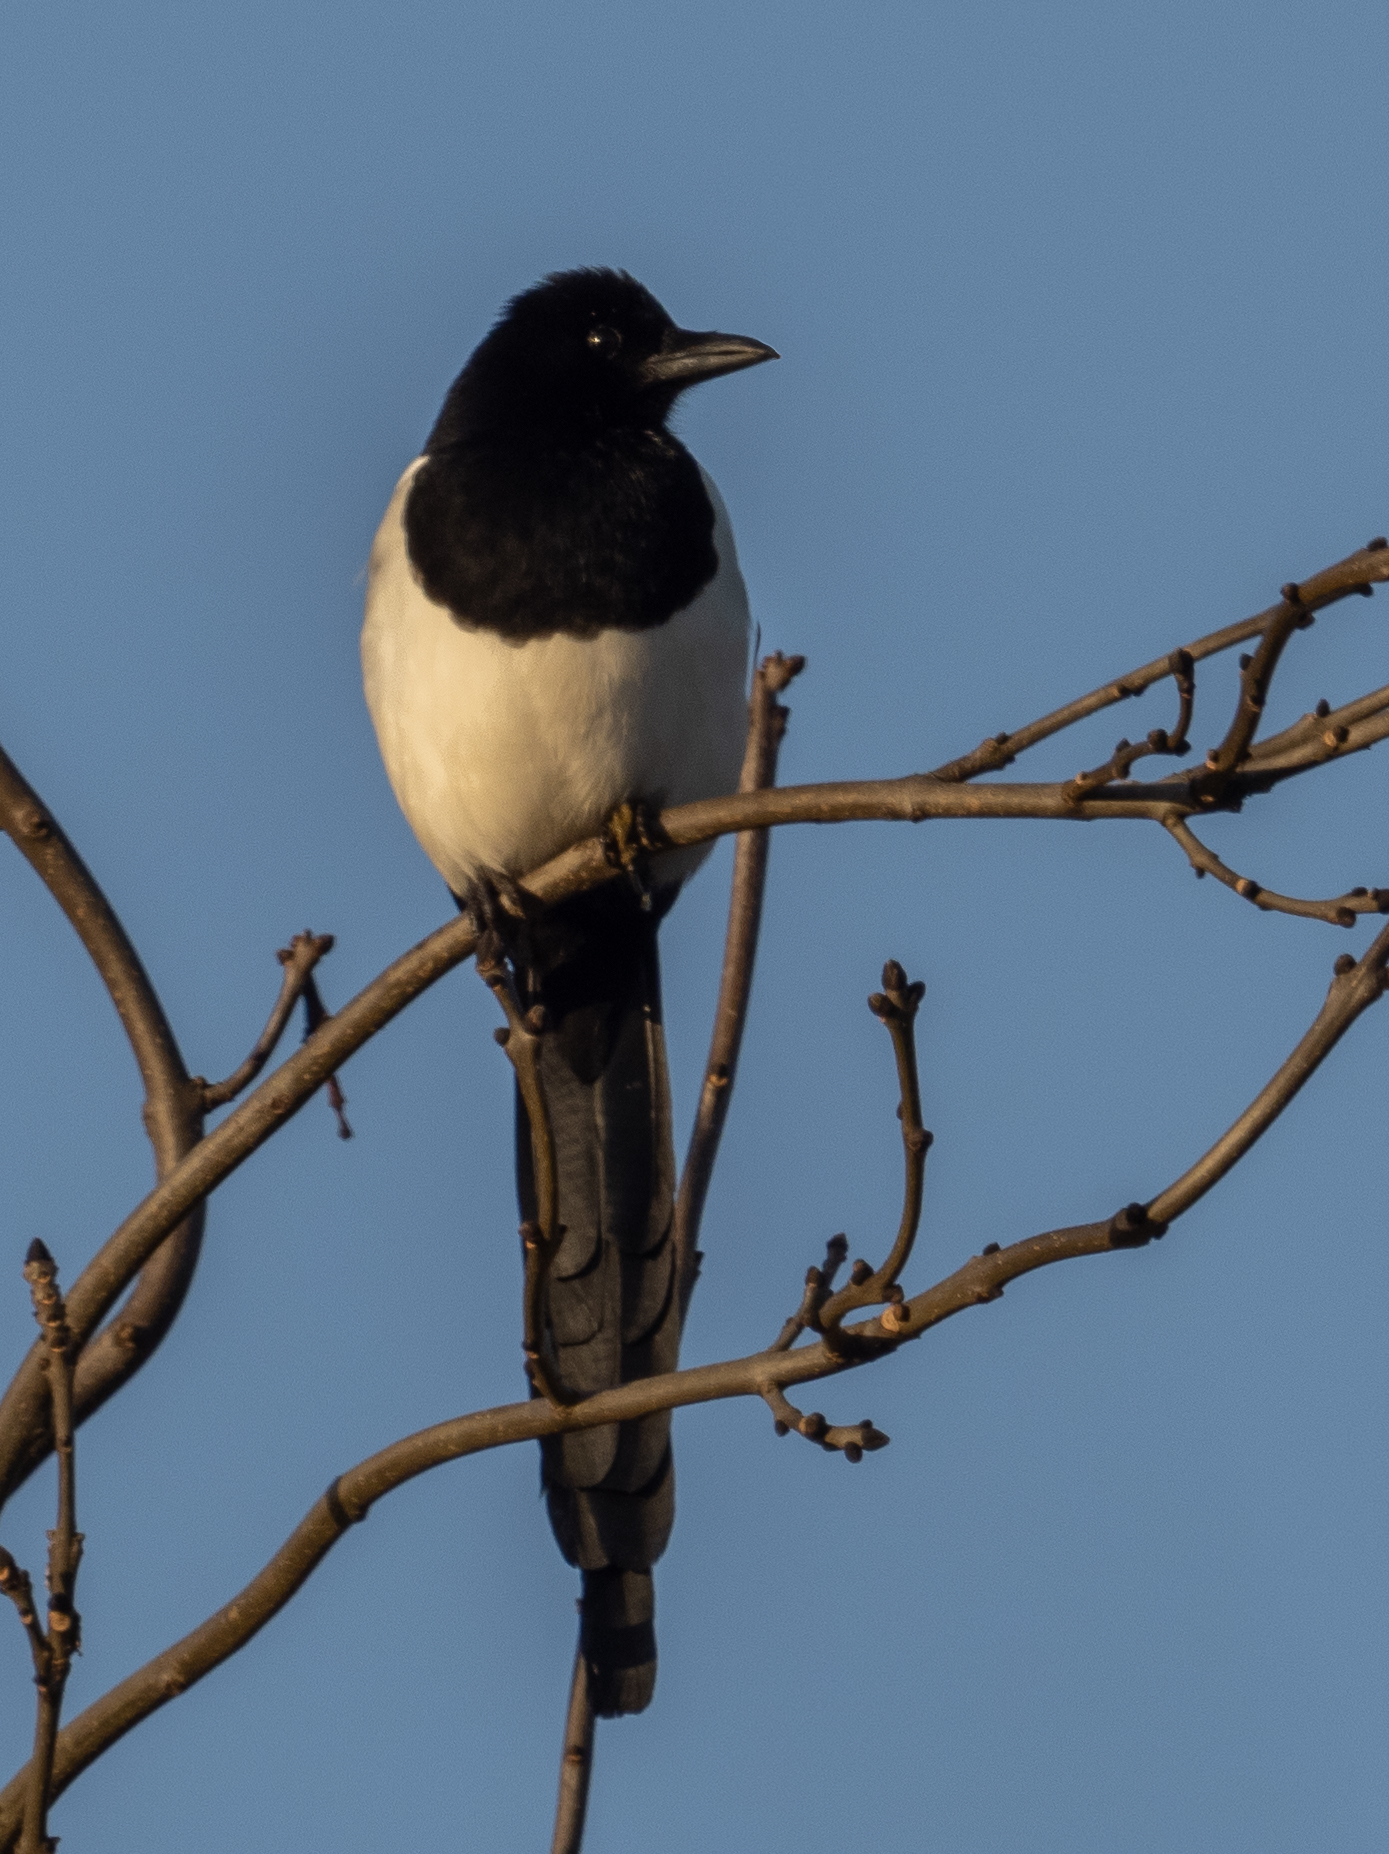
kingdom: Animalia
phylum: Chordata
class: Aves
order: Passeriformes
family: Corvidae
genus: Pica
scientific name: Pica pica
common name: Eurasian magpie
